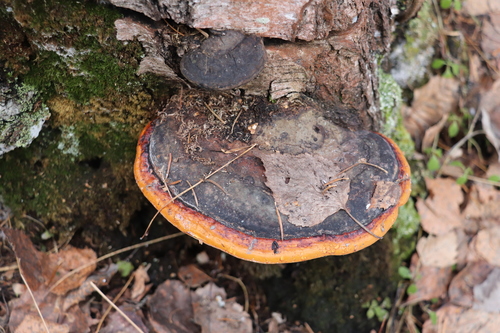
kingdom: Fungi
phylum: Basidiomycota
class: Agaricomycetes
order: Polyporales
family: Fomitopsidaceae
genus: Fomitopsis
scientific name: Fomitopsis pinicola
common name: Red-belted bracket
